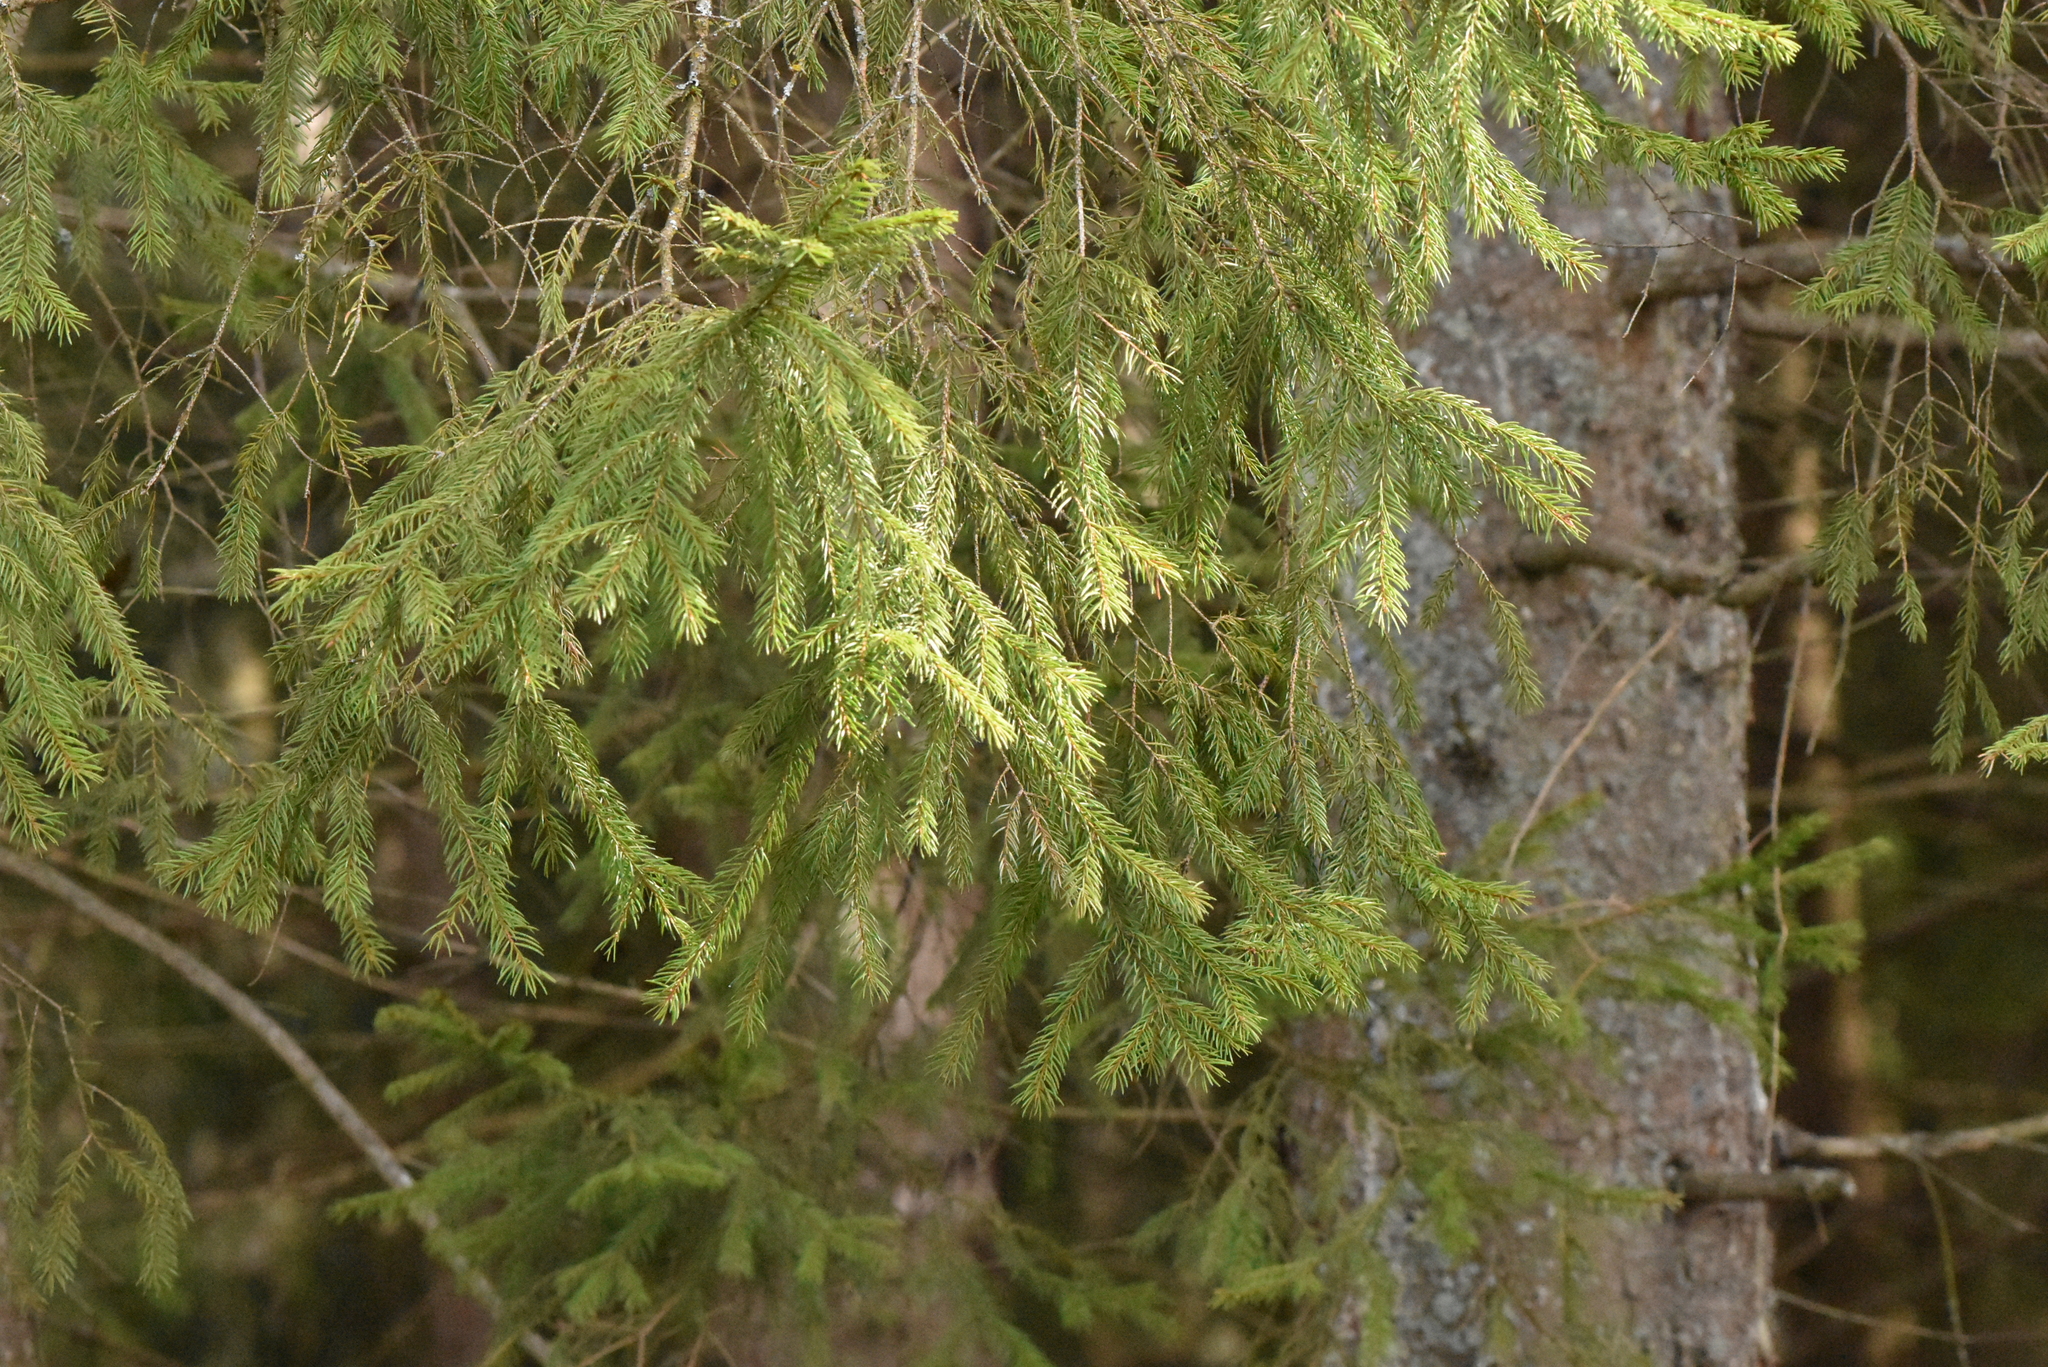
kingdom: Plantae
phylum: Tracheophyta
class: Pinopsida
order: Pinales
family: Pinaceae
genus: Picea
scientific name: Picea abies
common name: Norway spruce
